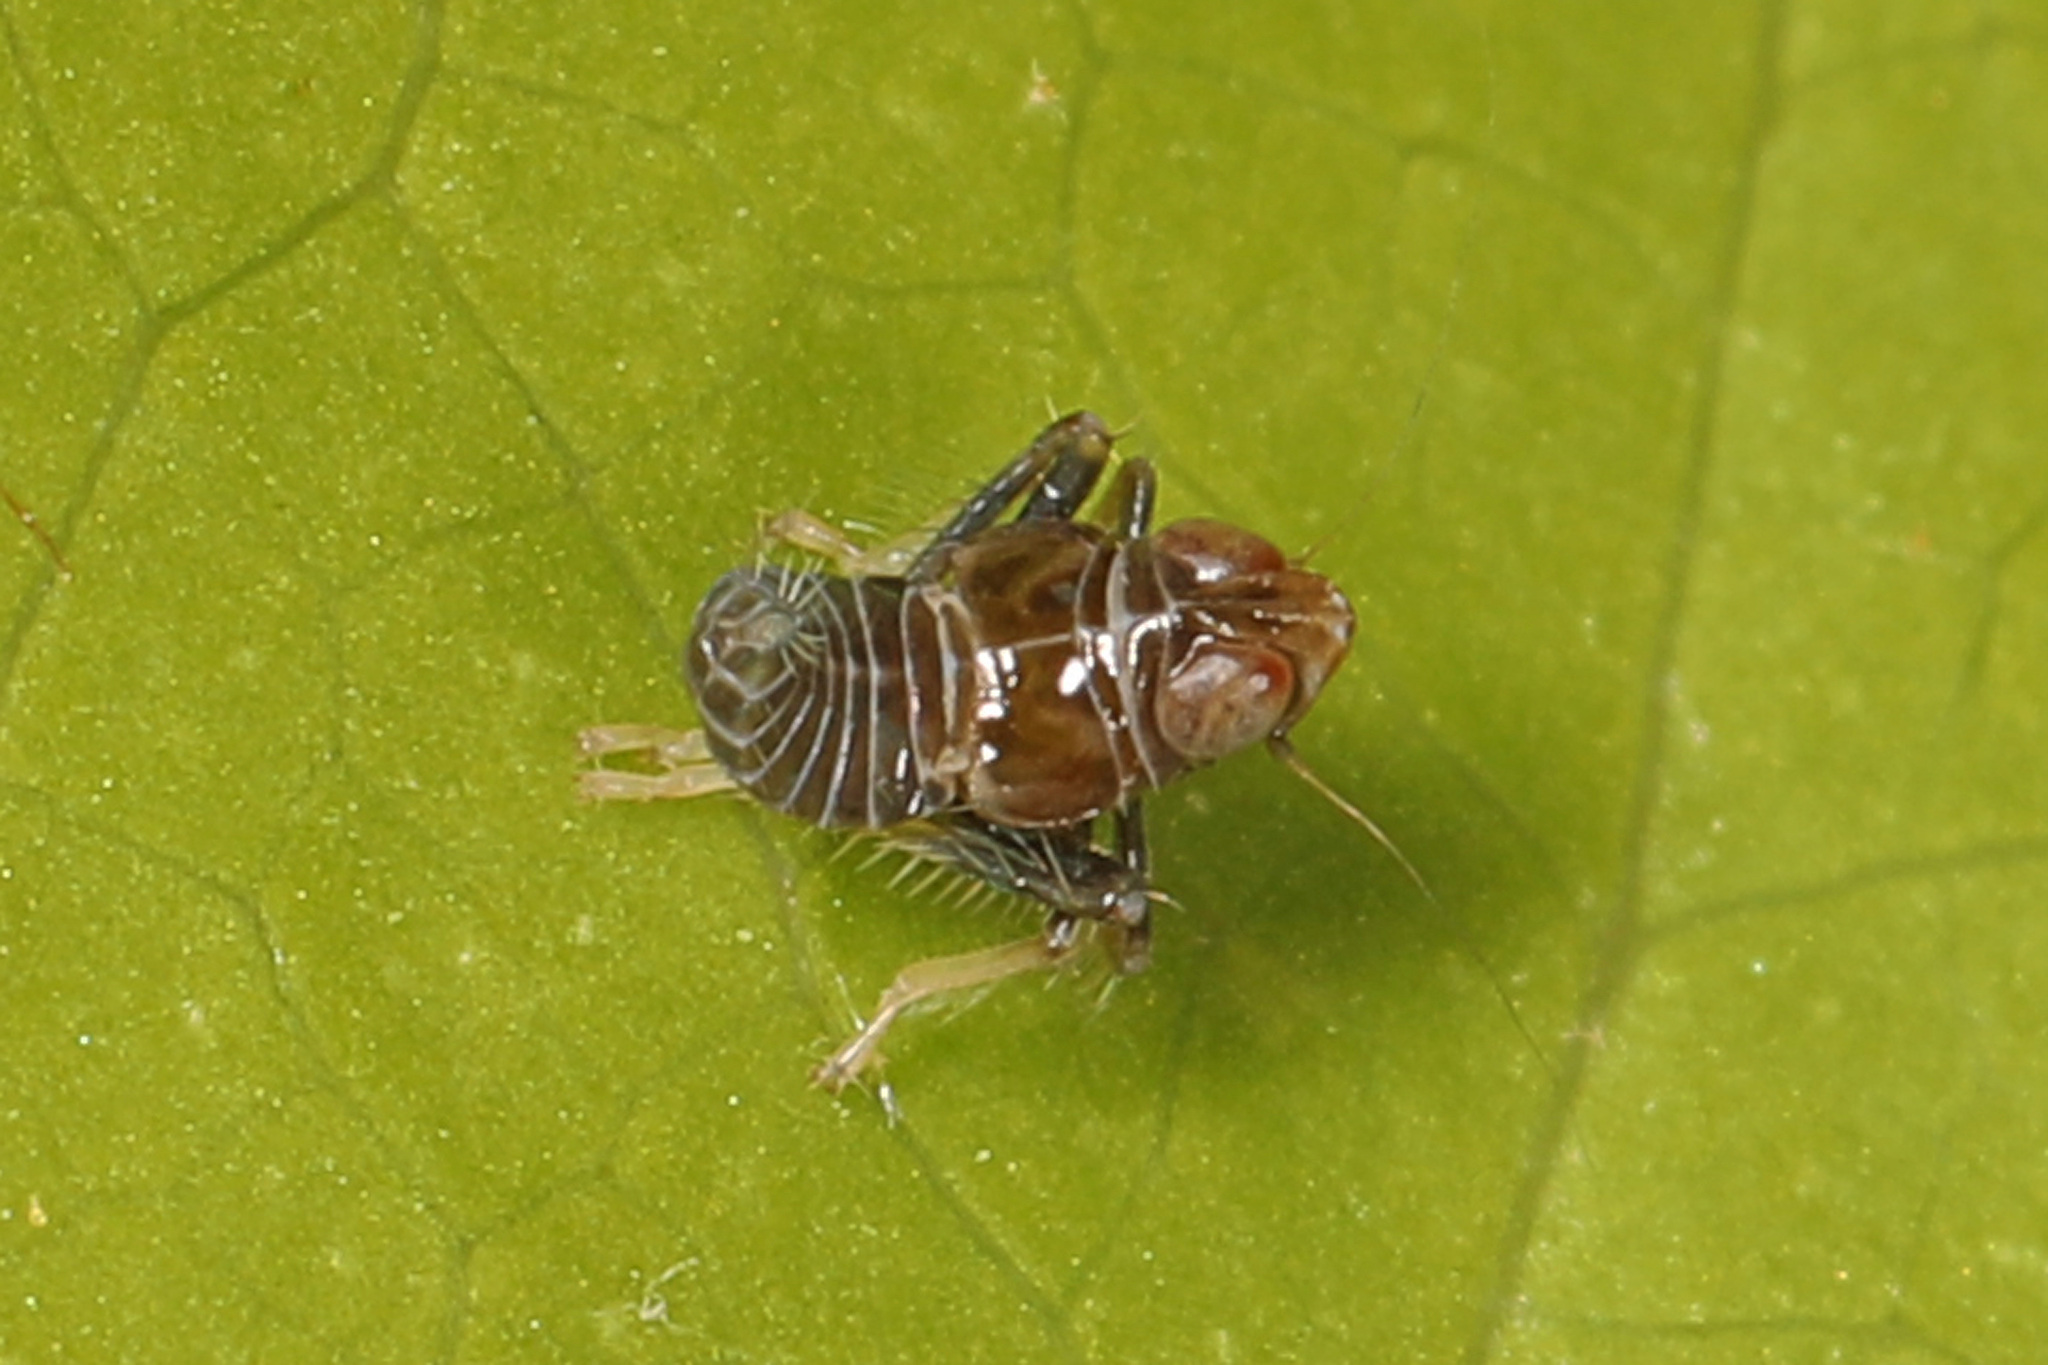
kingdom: Animalia
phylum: Arthropoda
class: Insecta
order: Hemiptera
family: Cicadellidae
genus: Jikradia
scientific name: Jikradia olitoria
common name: Coppery leafhopper
